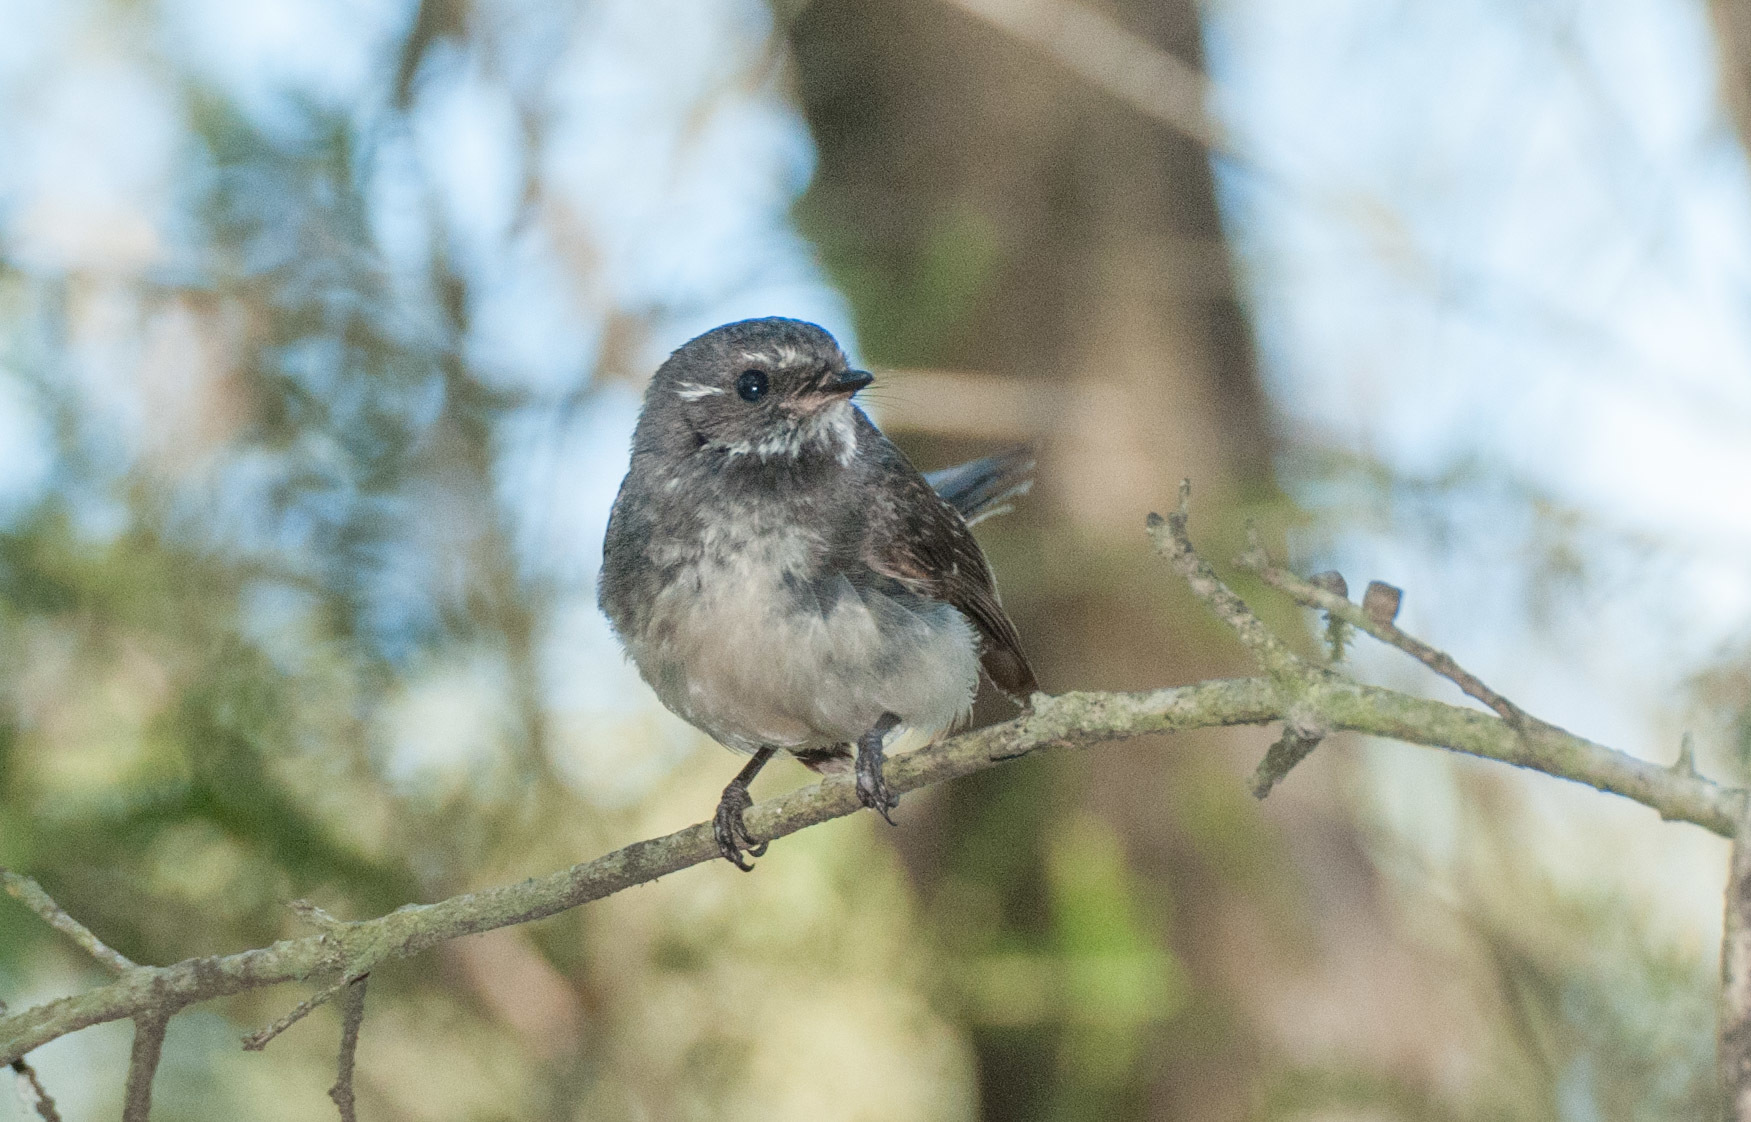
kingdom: Animalia
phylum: Chordata
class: Aves
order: Passeriformes
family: Rhipiduridae
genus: Rhipidura
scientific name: Rhipidura albiscapa
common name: Grey fantail
